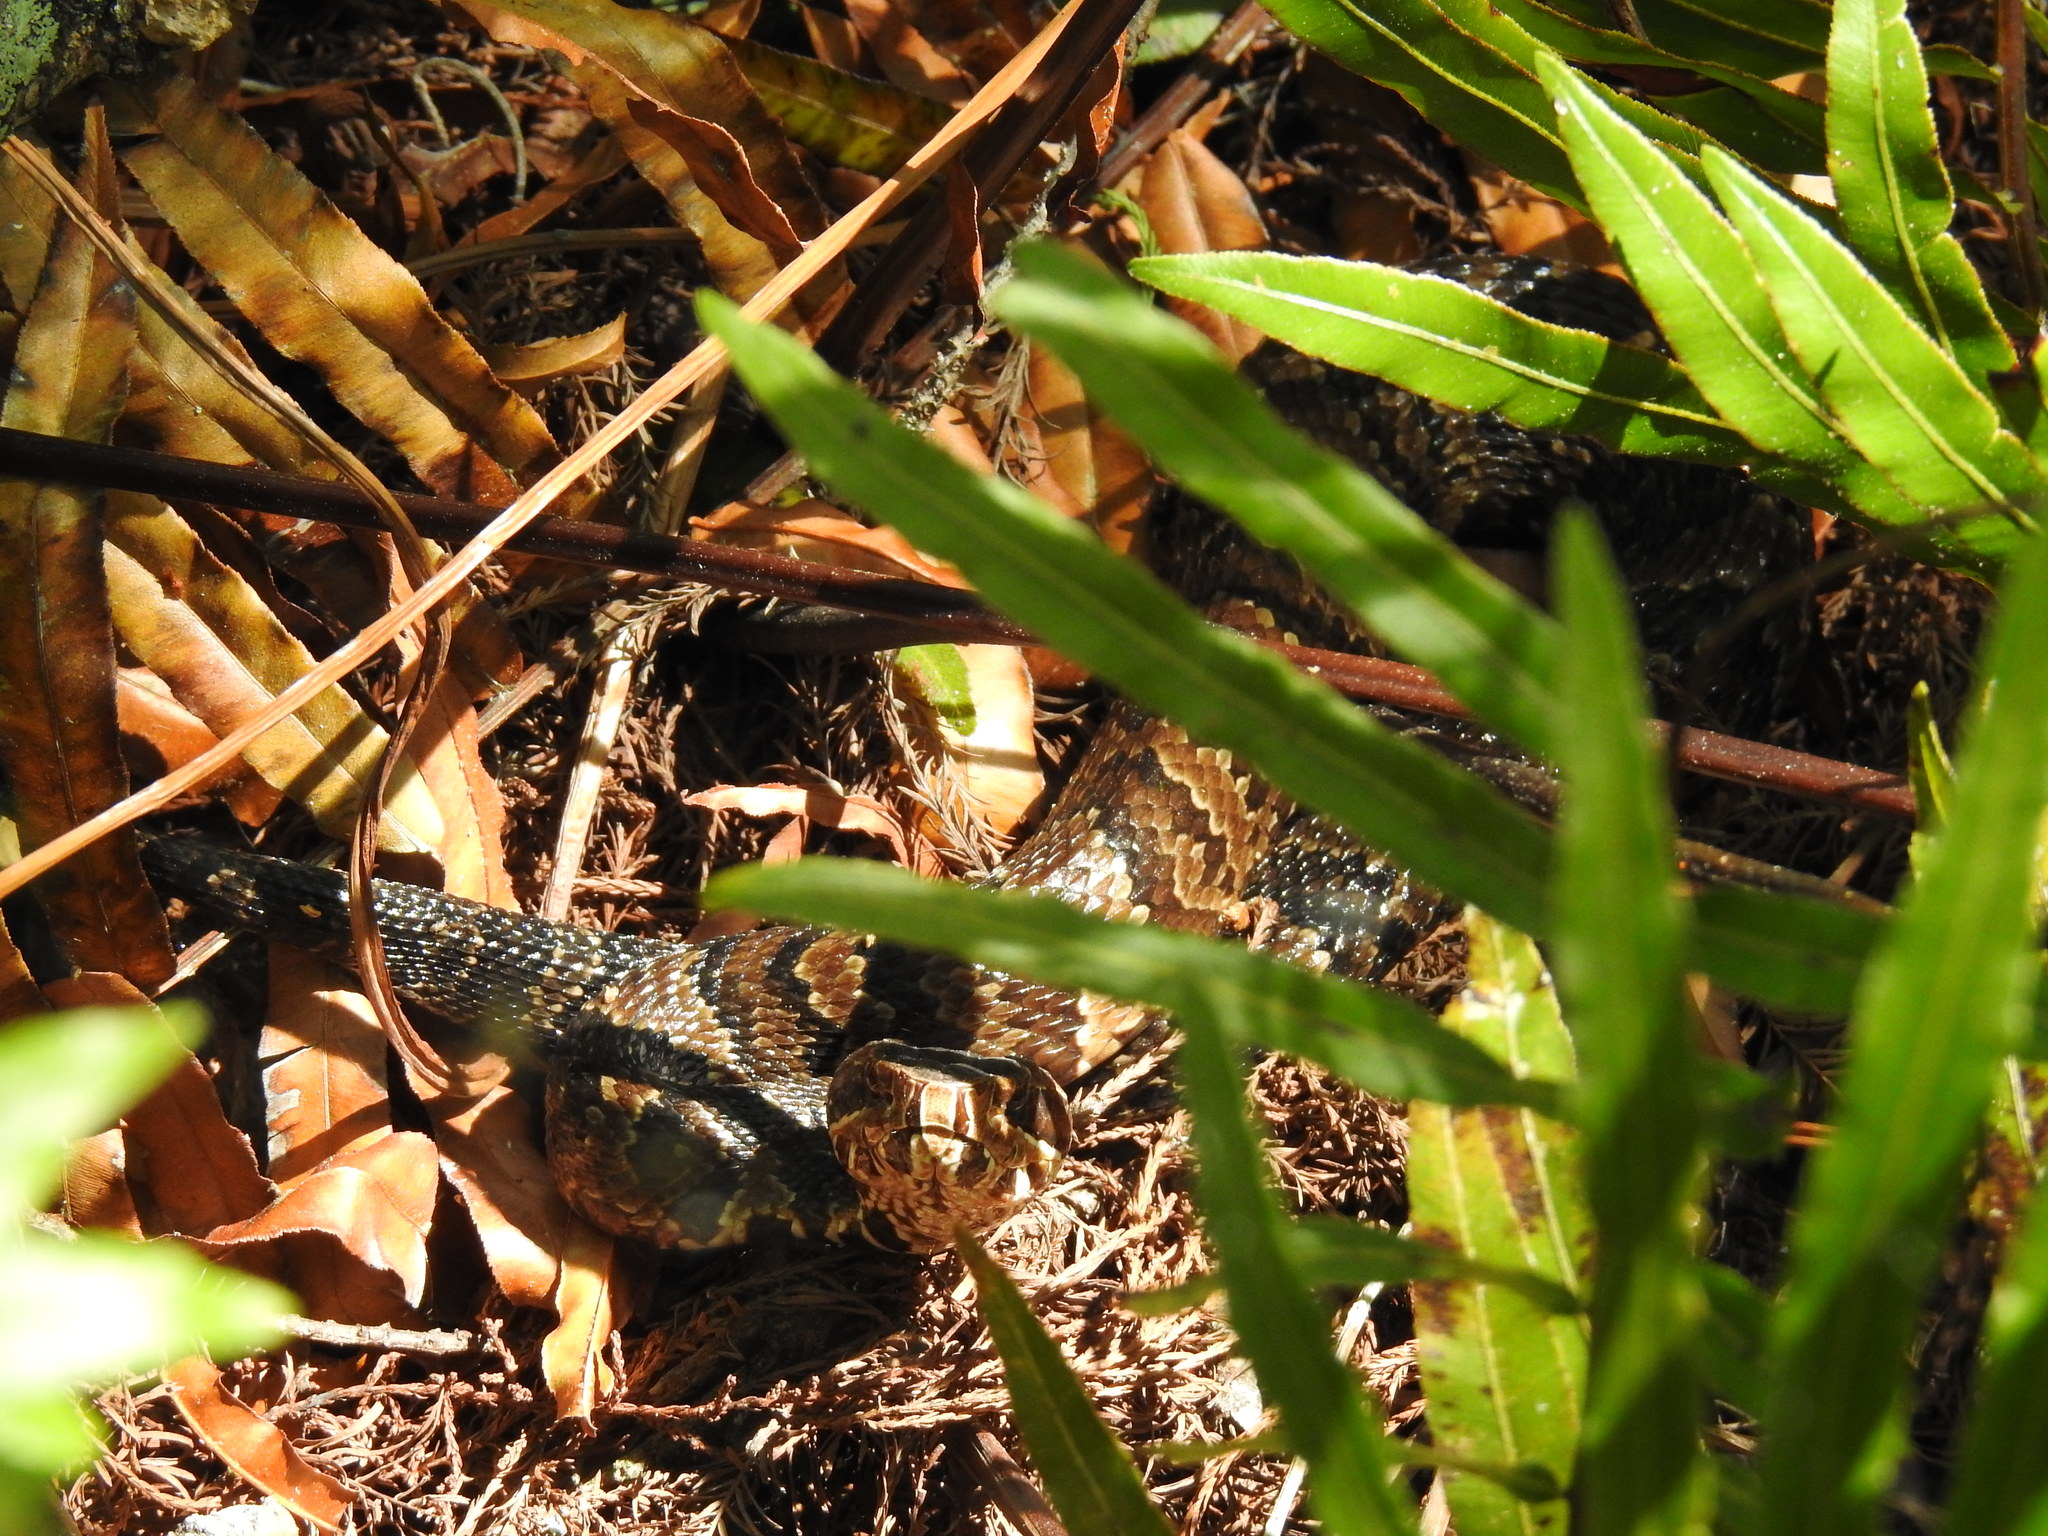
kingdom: Animalia
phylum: Chordata
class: Squamata
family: Viperidae
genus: Agkistrodon
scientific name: Agkistrodon conanti
